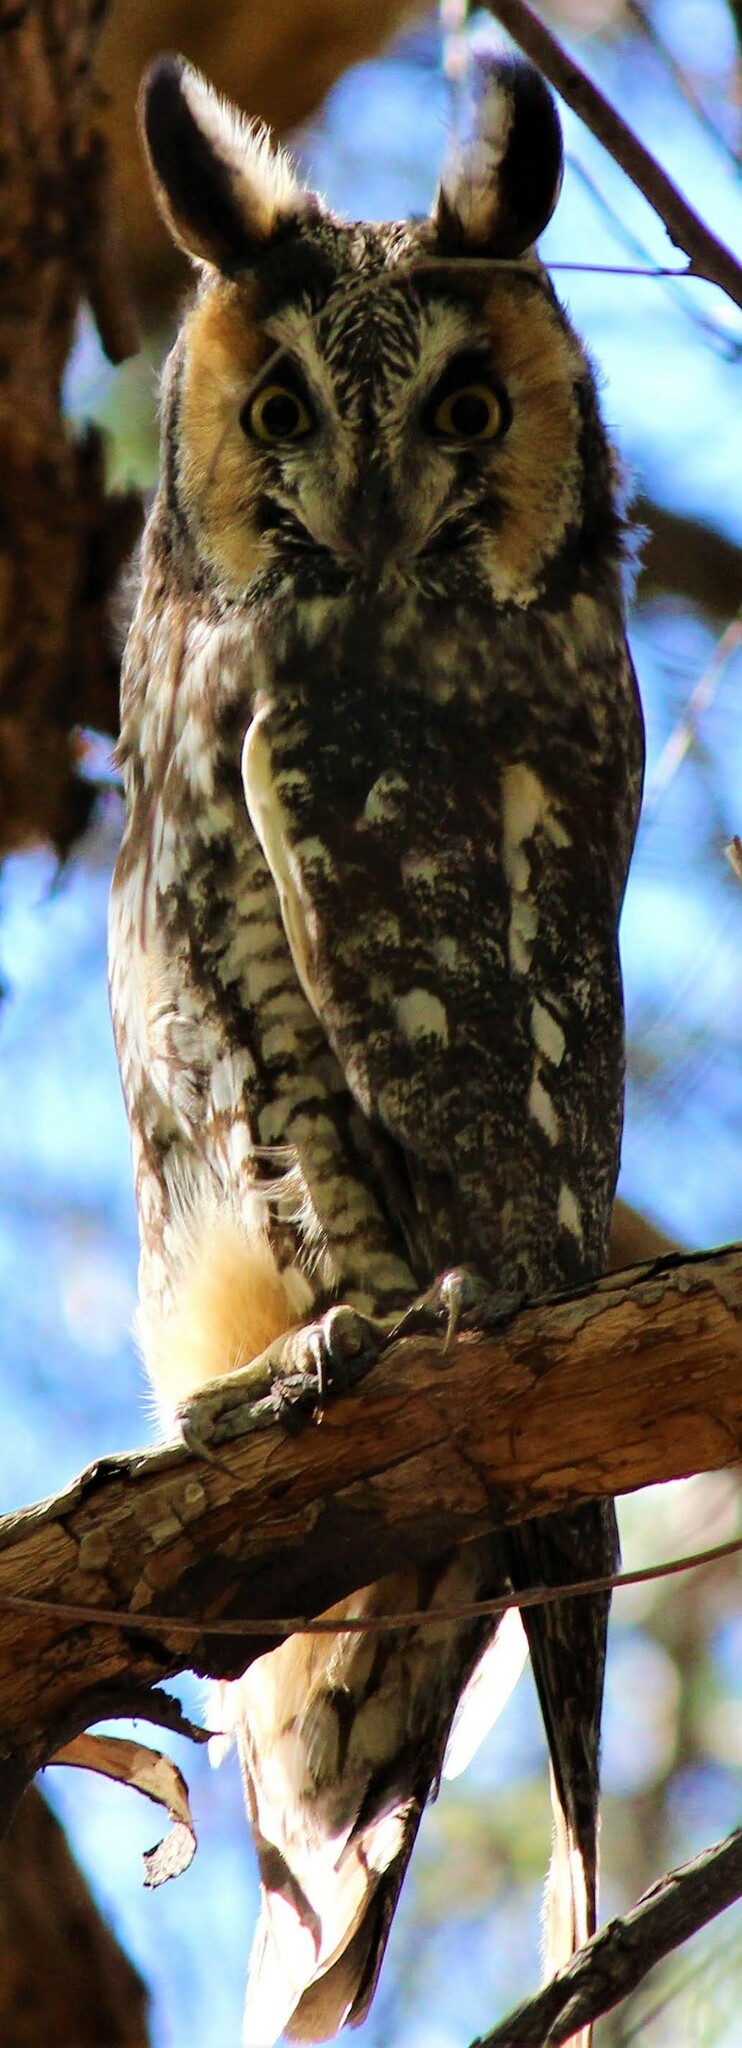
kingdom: Animalia
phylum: Chordata
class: Aves
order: Strigiformes
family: Strigidae
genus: Asio
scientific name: Asio otus
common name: Long-eared owl
